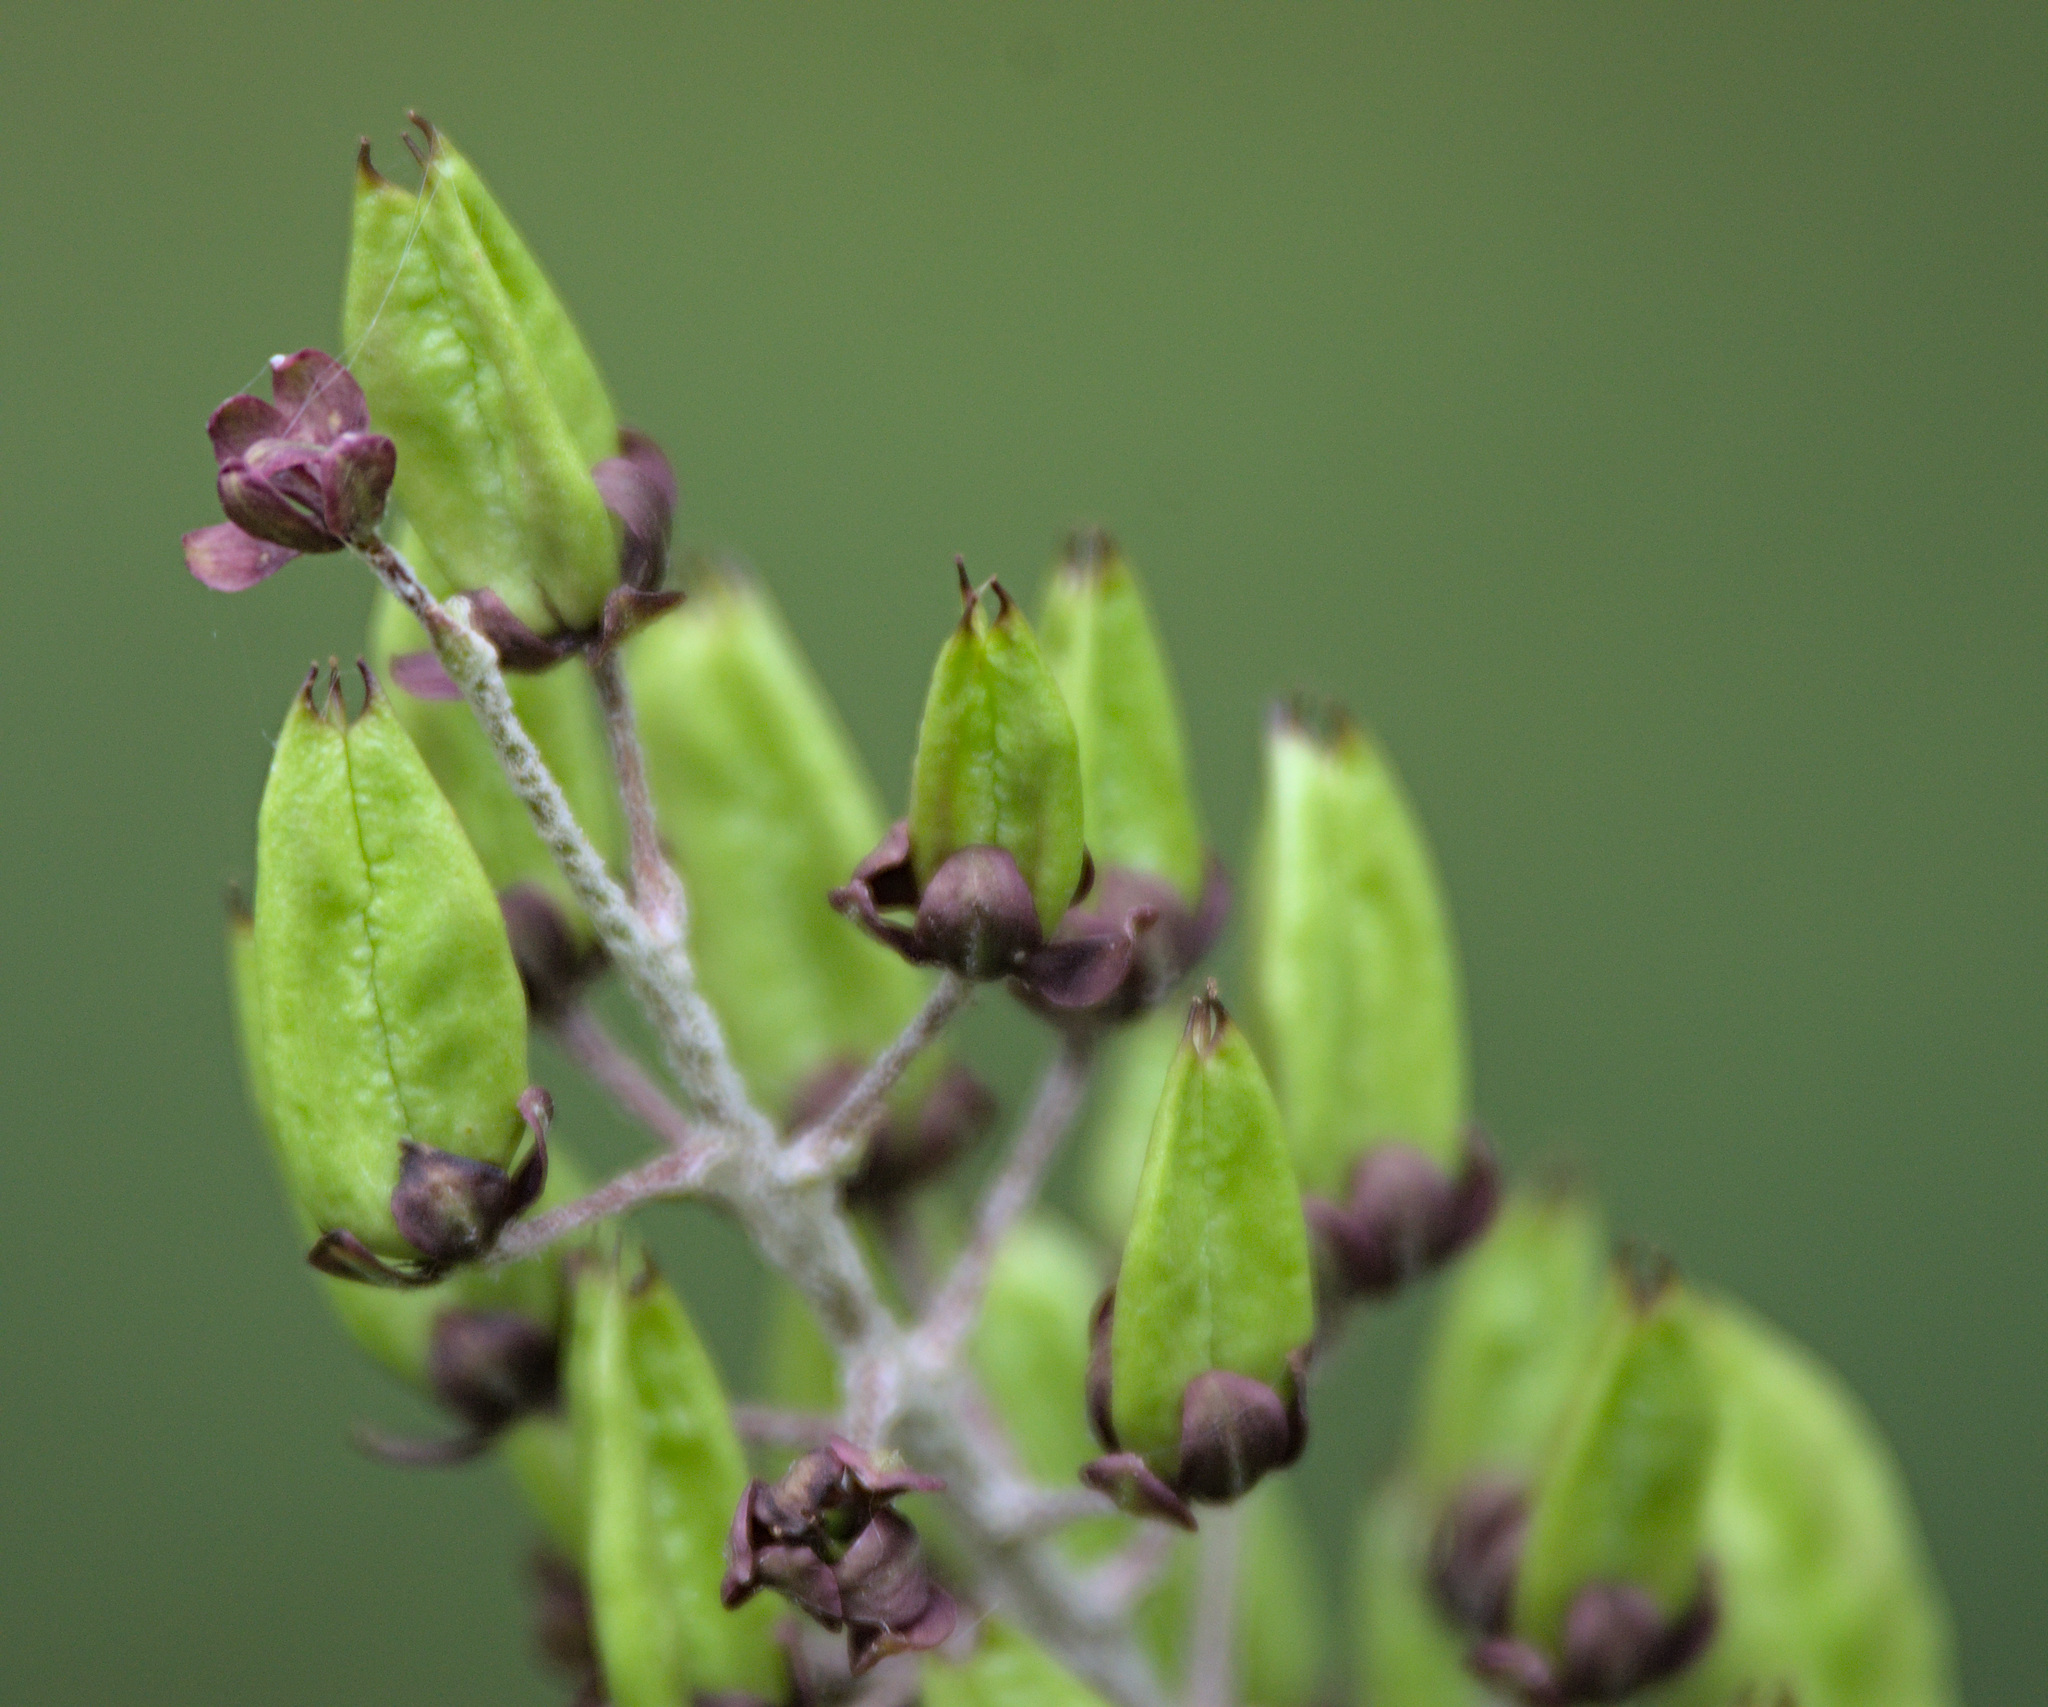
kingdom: Plantae
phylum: Tracheophyta
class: Liliopsida
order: Liliales
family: Melanthiaceae
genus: Veratrum
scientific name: Veratrum nigrum
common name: Black veratrum
